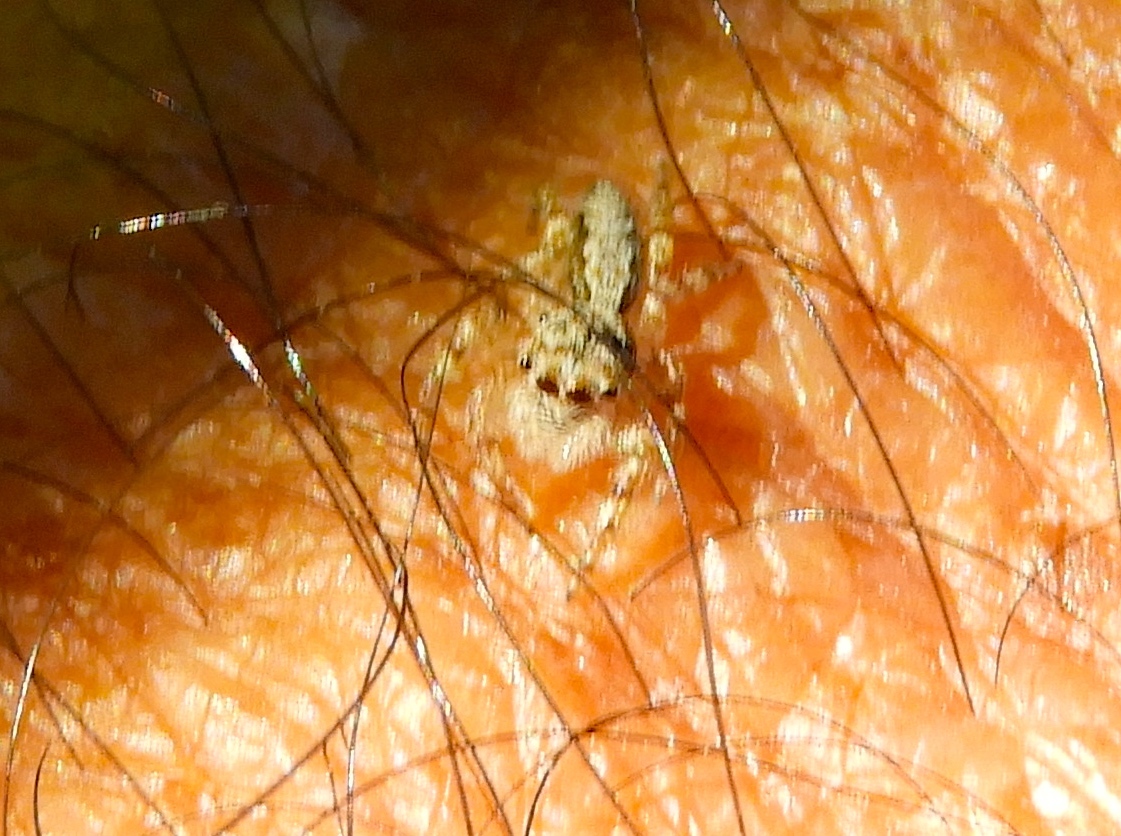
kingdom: Animalia
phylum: Arthropoda
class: Arachnida
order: Araneae
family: Salticidae
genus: Balmaceda
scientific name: Balmaceda
